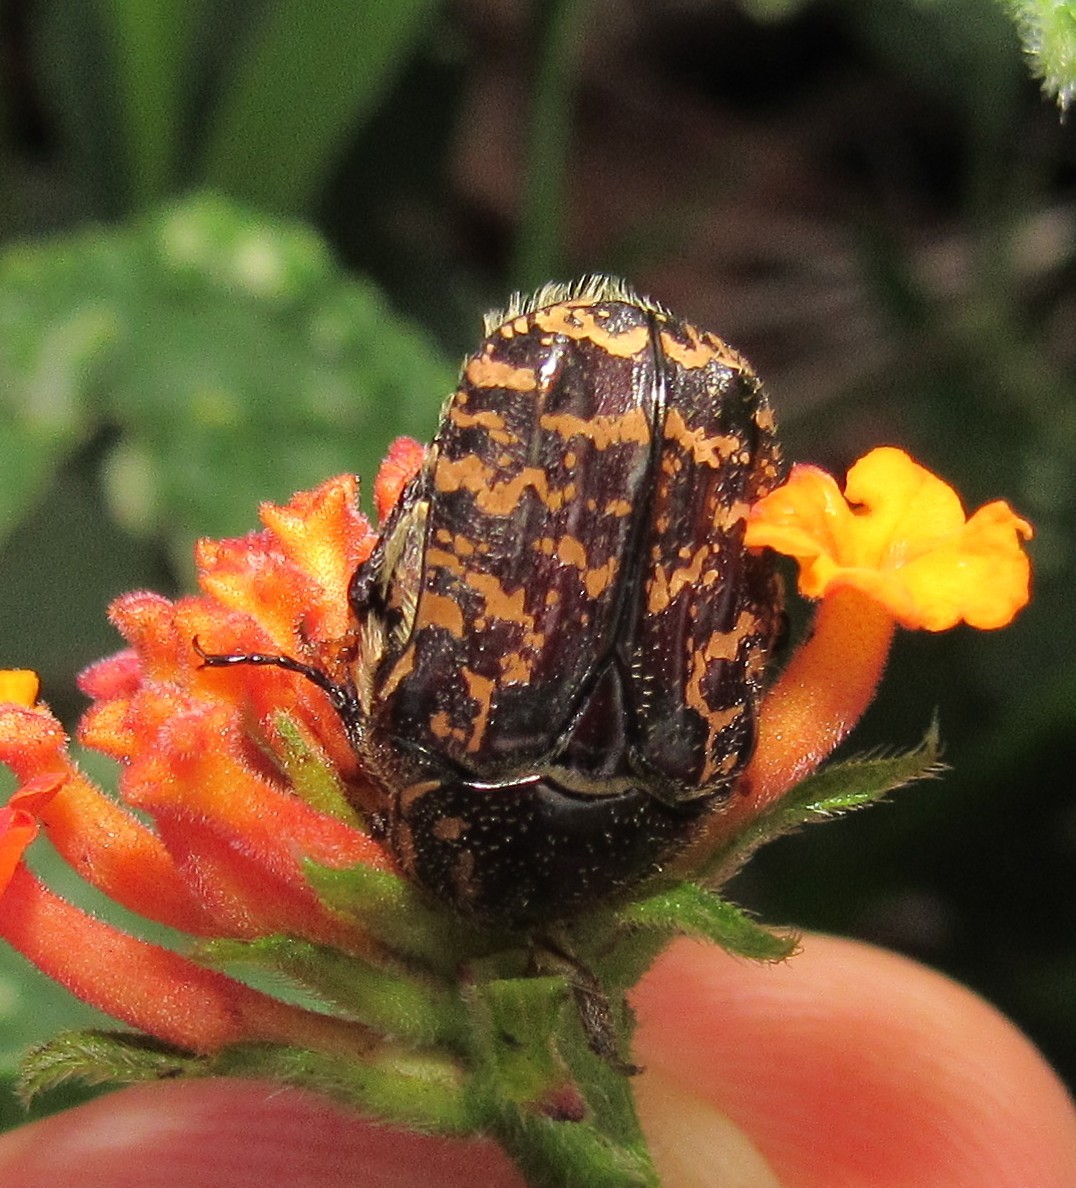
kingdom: Animalia
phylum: Arthropoda
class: Insecta
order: Coleoptera
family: Scarabaeidae
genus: Euphoria
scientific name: Euphoria lurida
